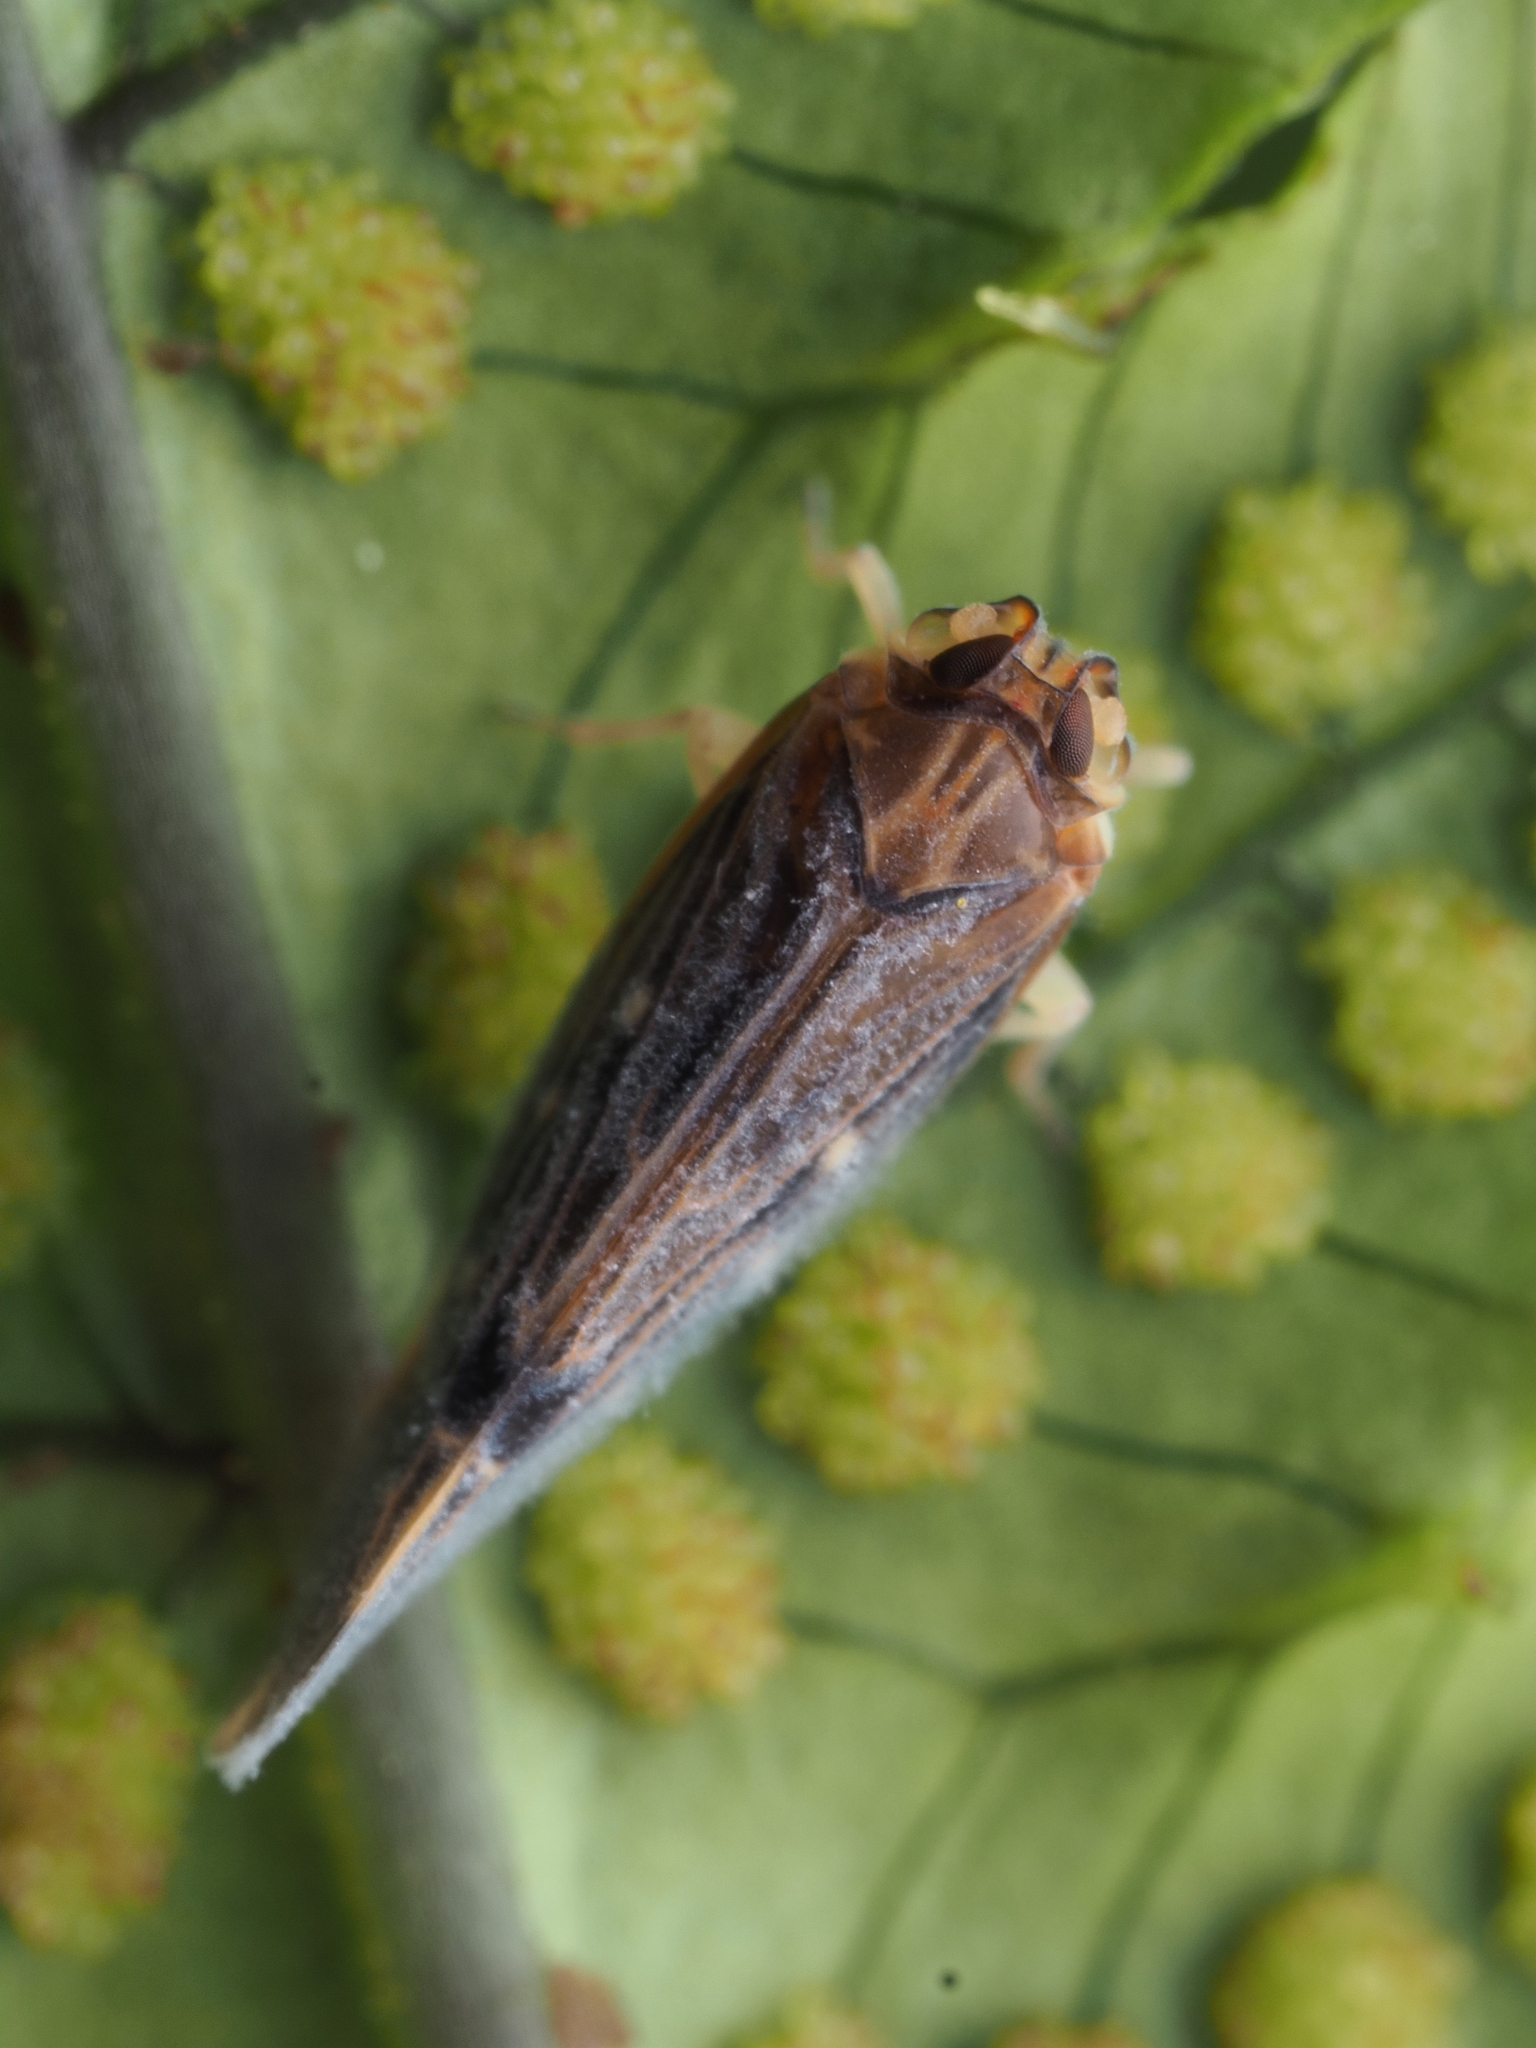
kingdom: Animalia
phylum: Arthropoda
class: Insecta
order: Hemiptera
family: Derbidae
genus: Eocenchrea
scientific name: Eocenchrea maorica
